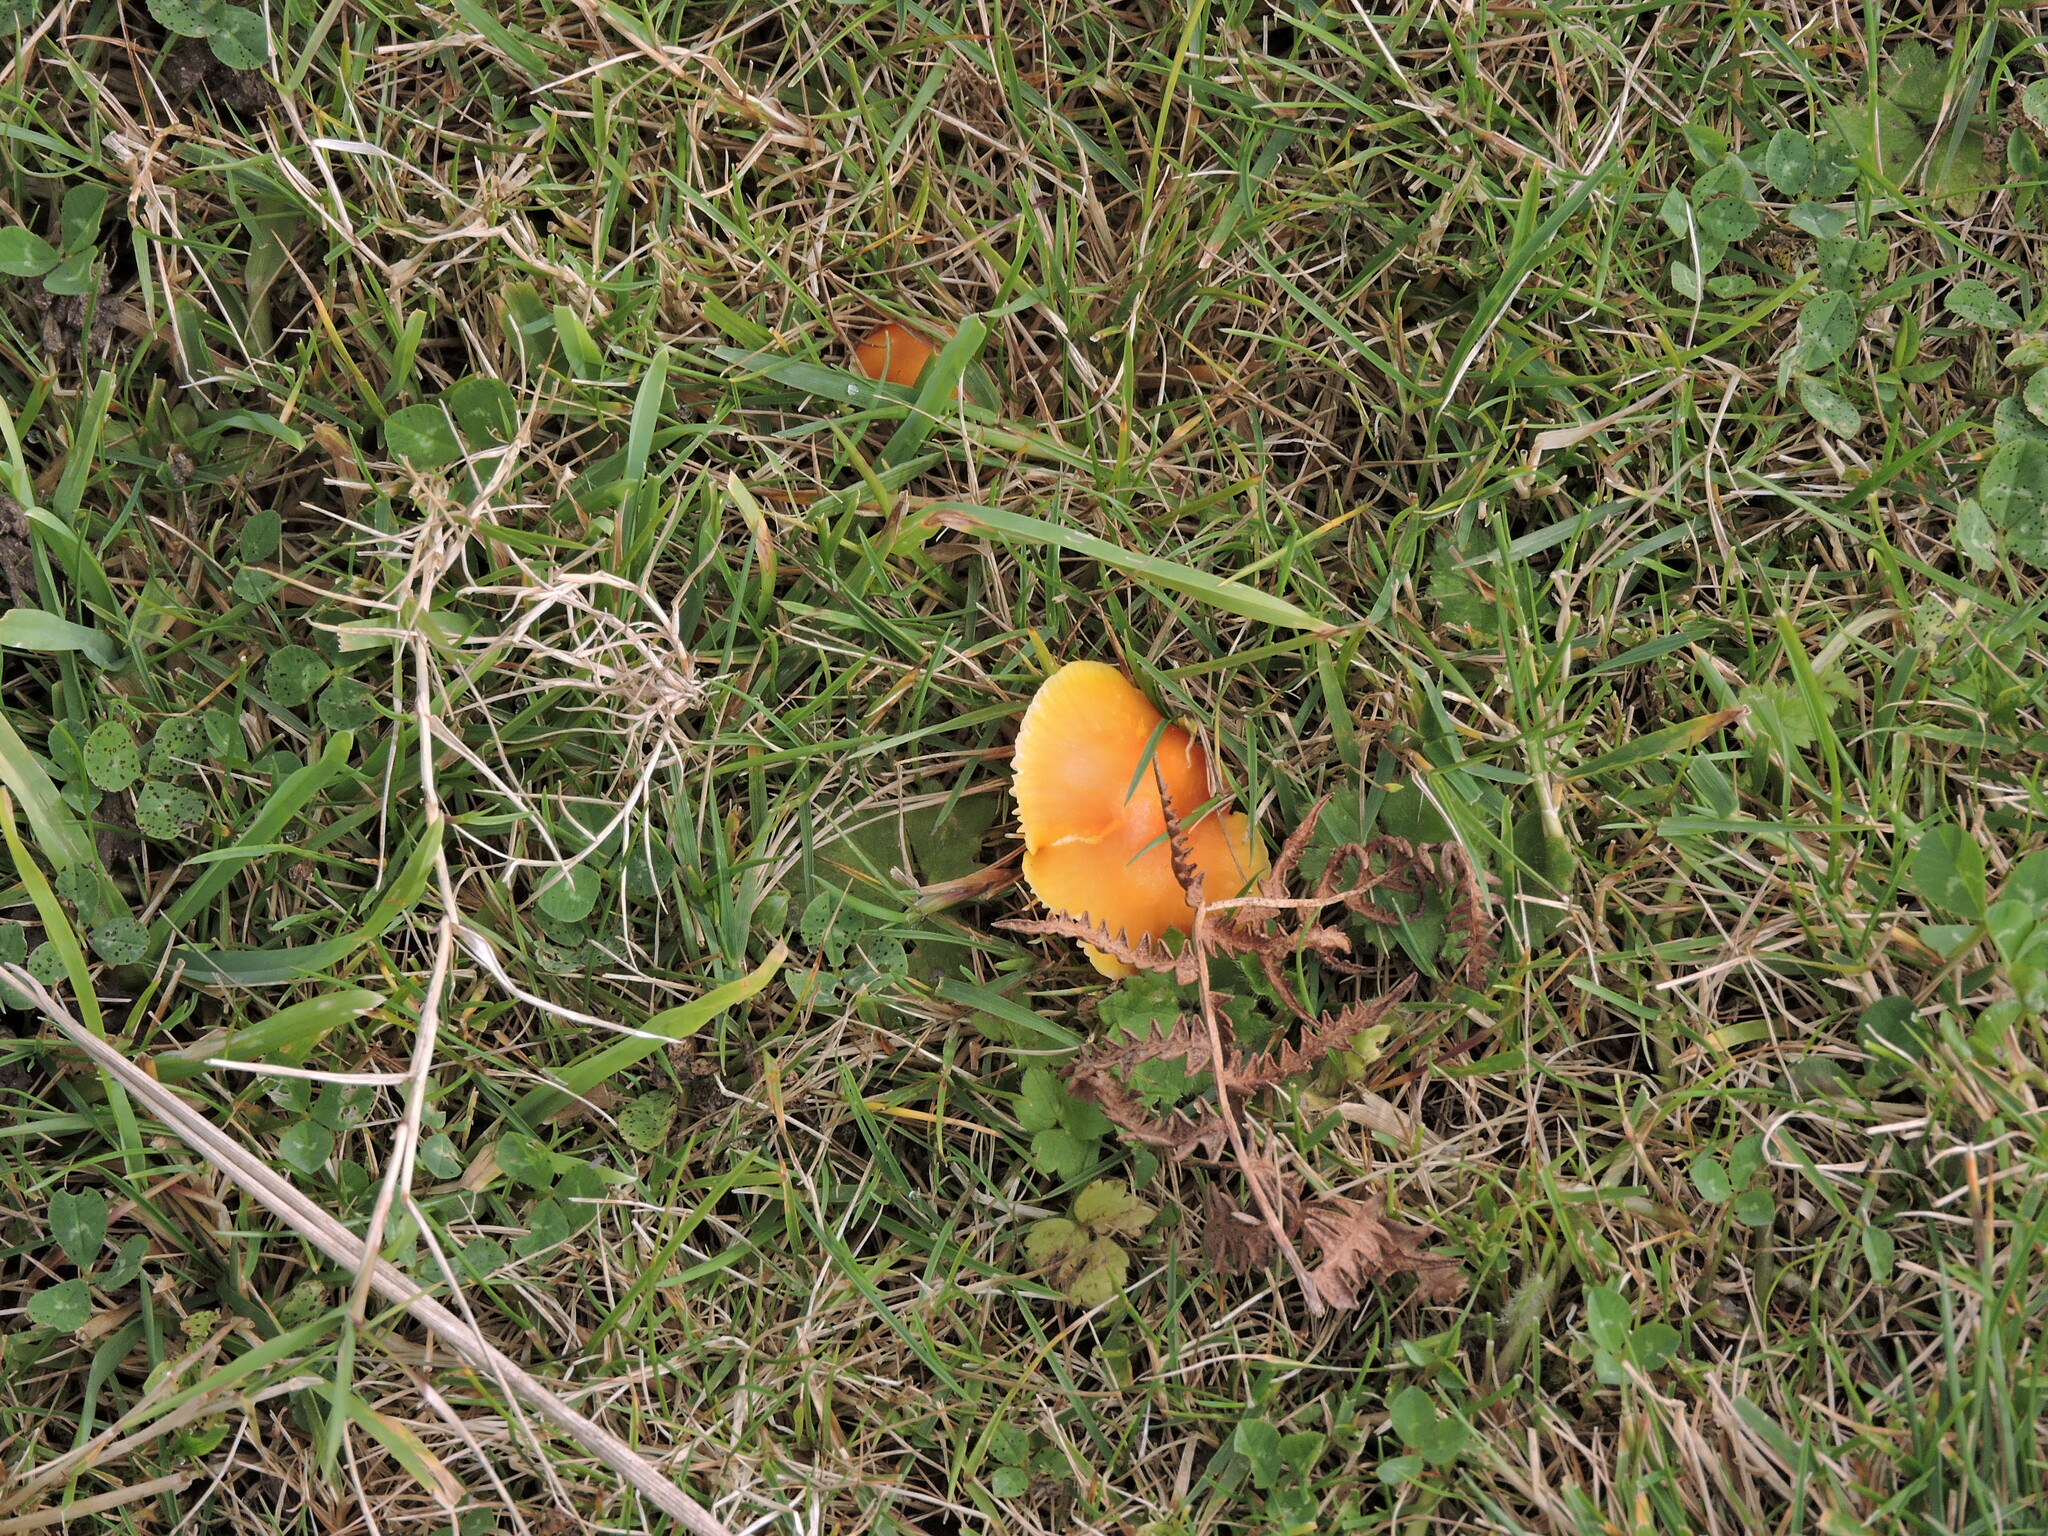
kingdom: Fungi
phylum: Basidiomycota
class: Agaricomycetes
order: Agaricales
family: Hygrophoraceae
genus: Hygrocybe
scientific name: Hygrocybe ceracea
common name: Butter waxcap
